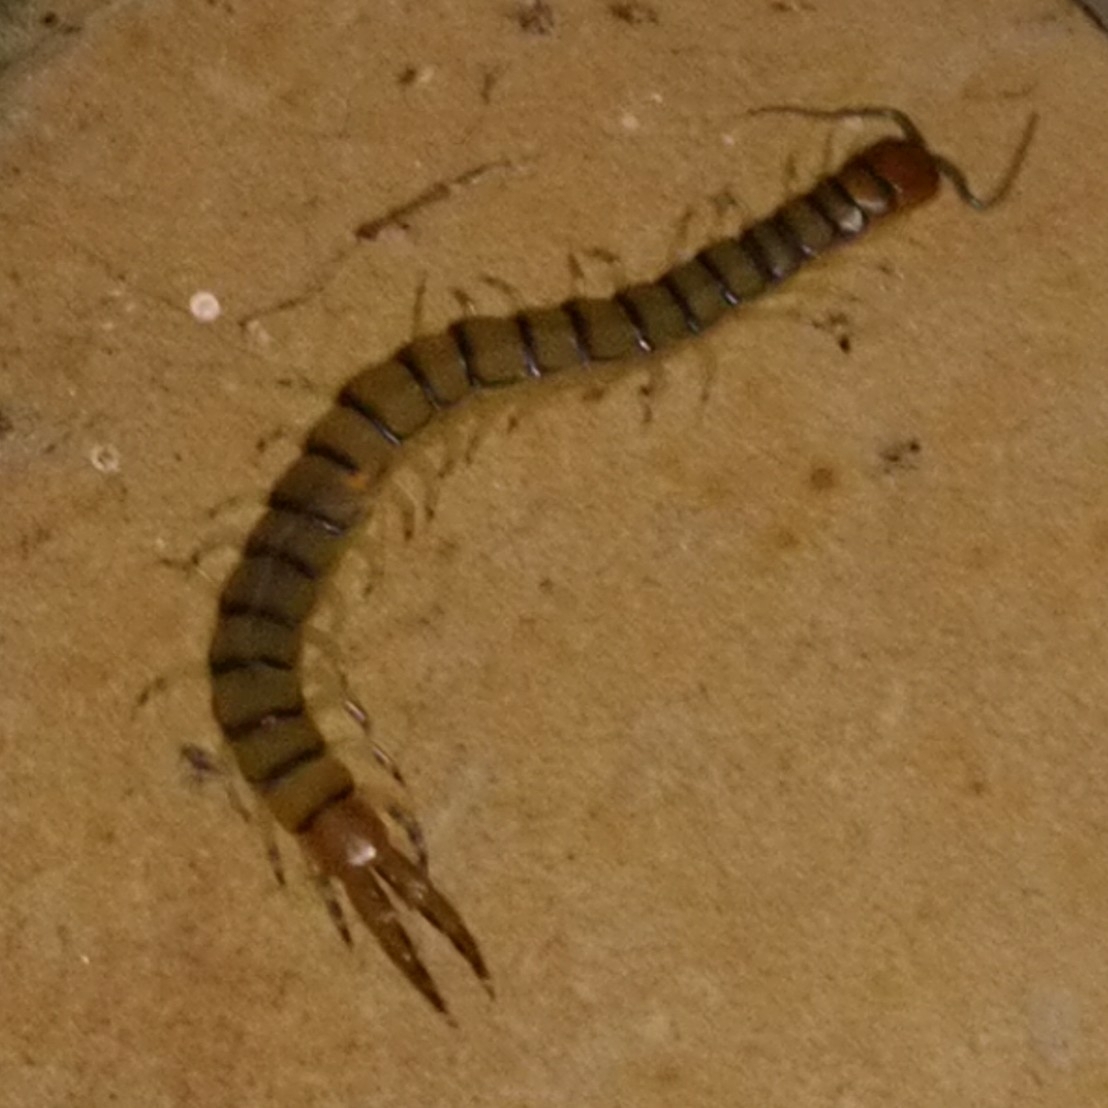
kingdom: Animalia
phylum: Arthropoda
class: Chilopoda
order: Scolopendromorpha
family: Scolopendridae
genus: Scolopendra
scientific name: Scolopendra morsitans
